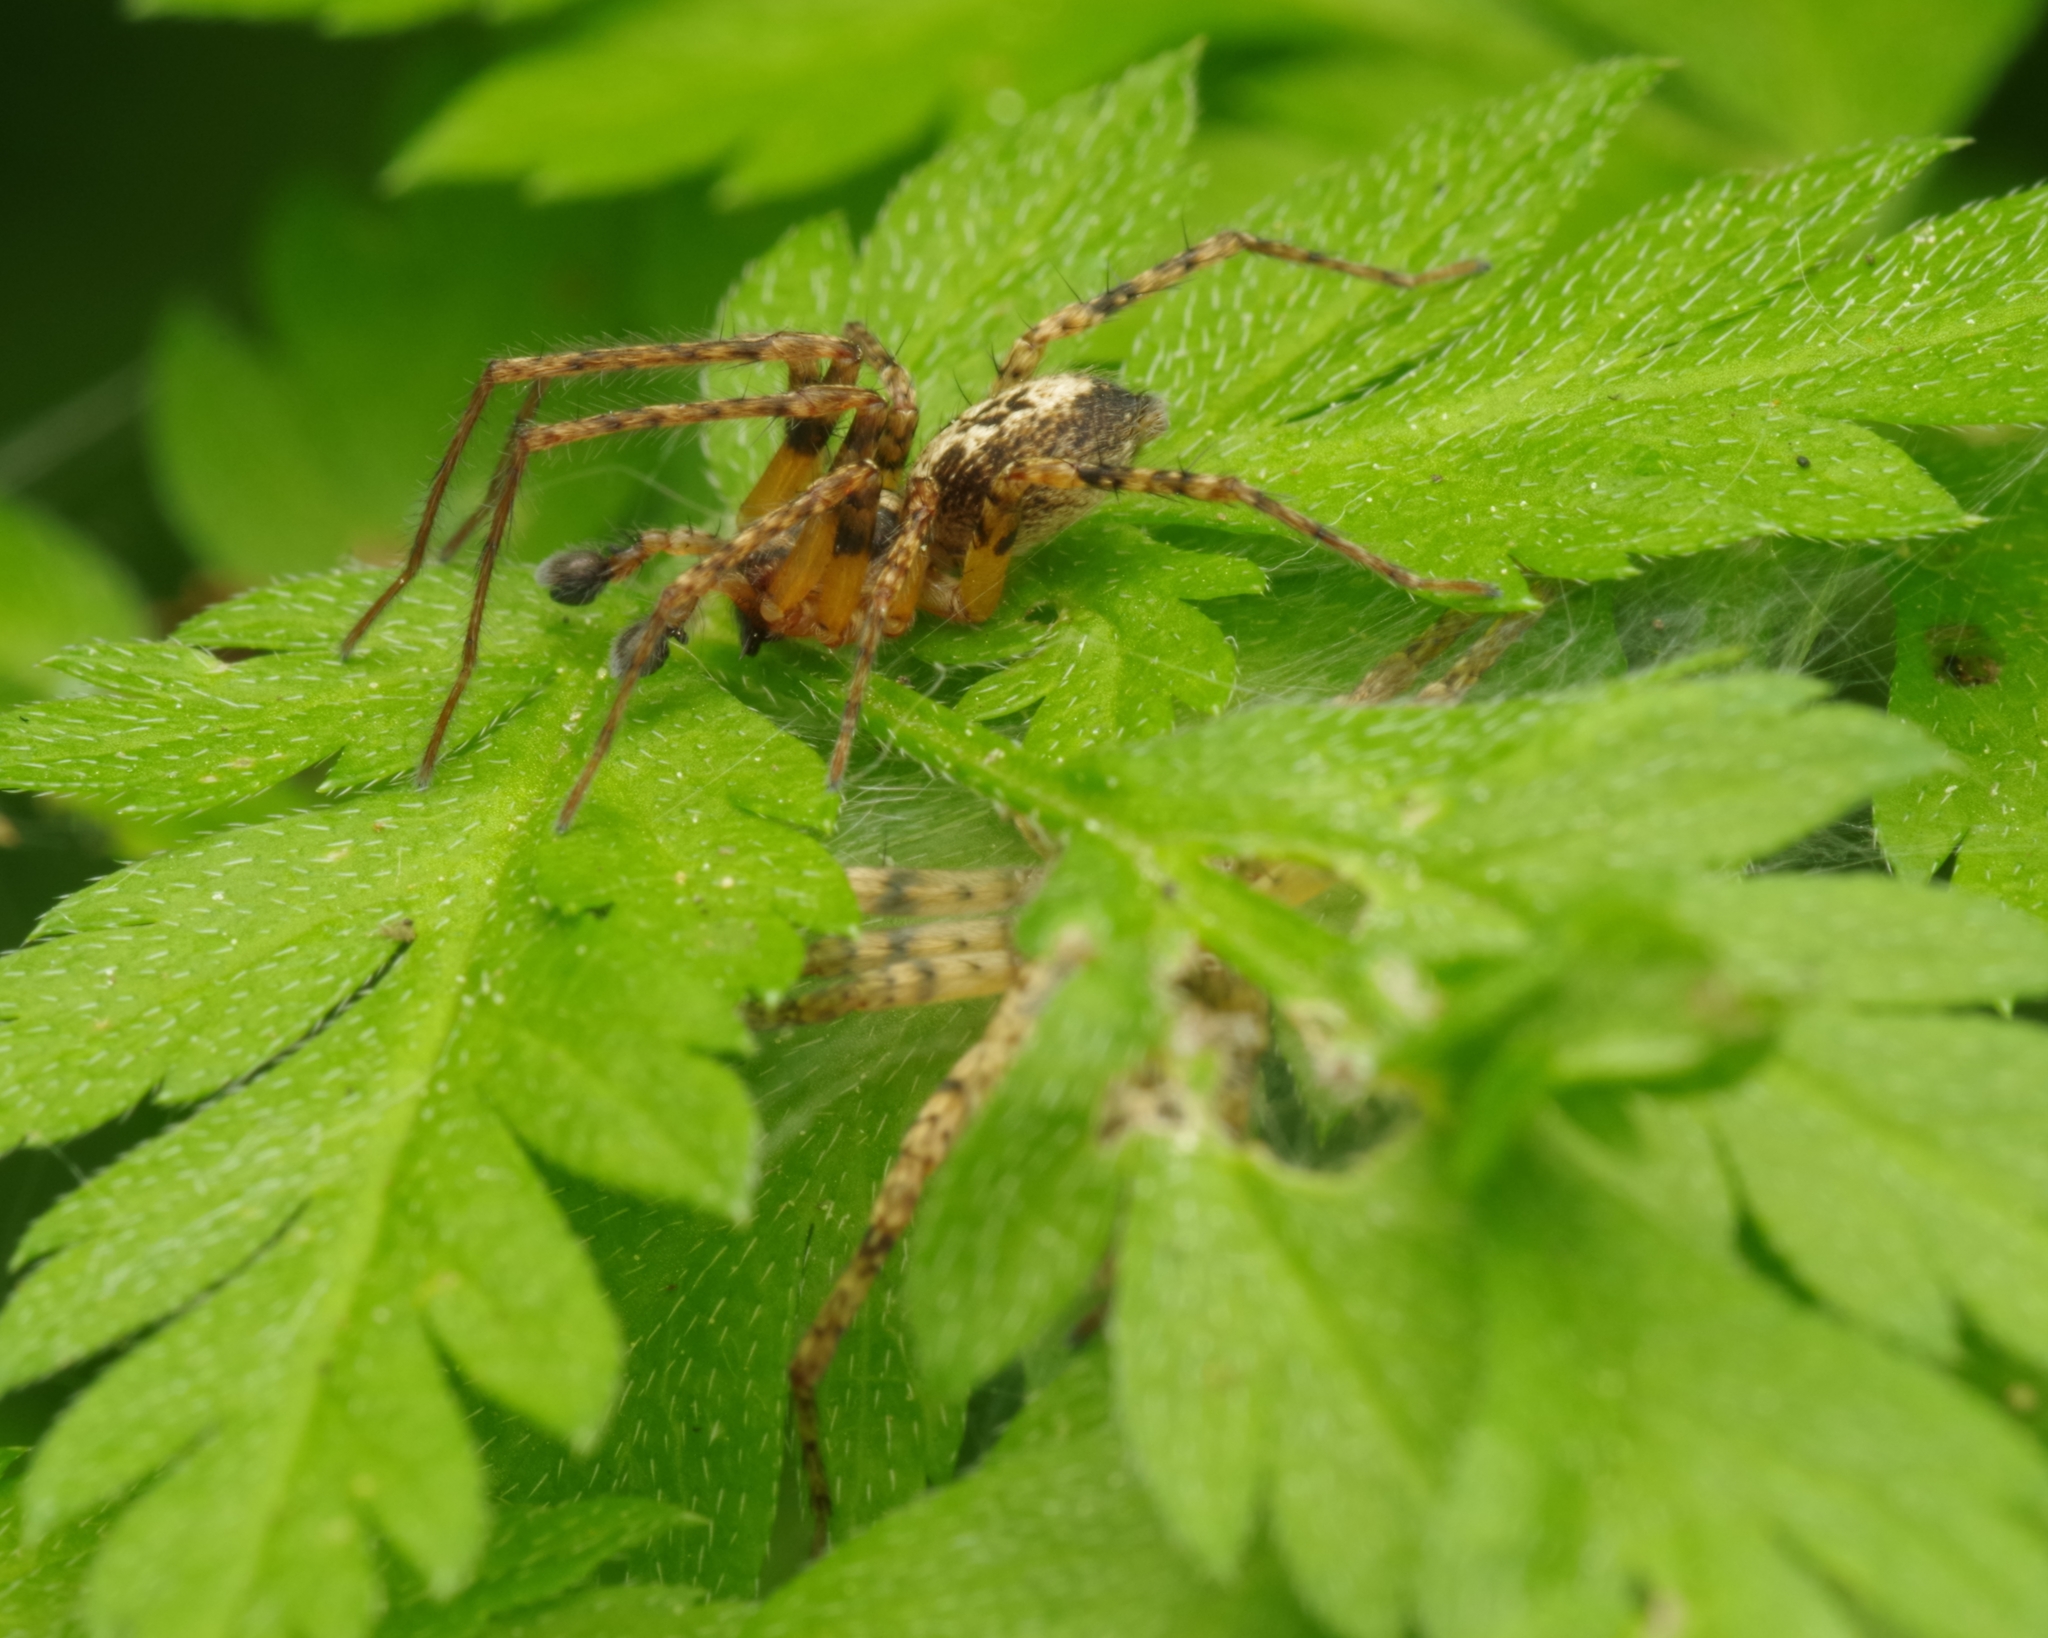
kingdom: Animalia
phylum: Arthropoda
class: Arachnida
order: Araneae
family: Anyphaenidae
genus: Anyphaena
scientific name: Anyphaena accentuata
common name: Buzzing spider
